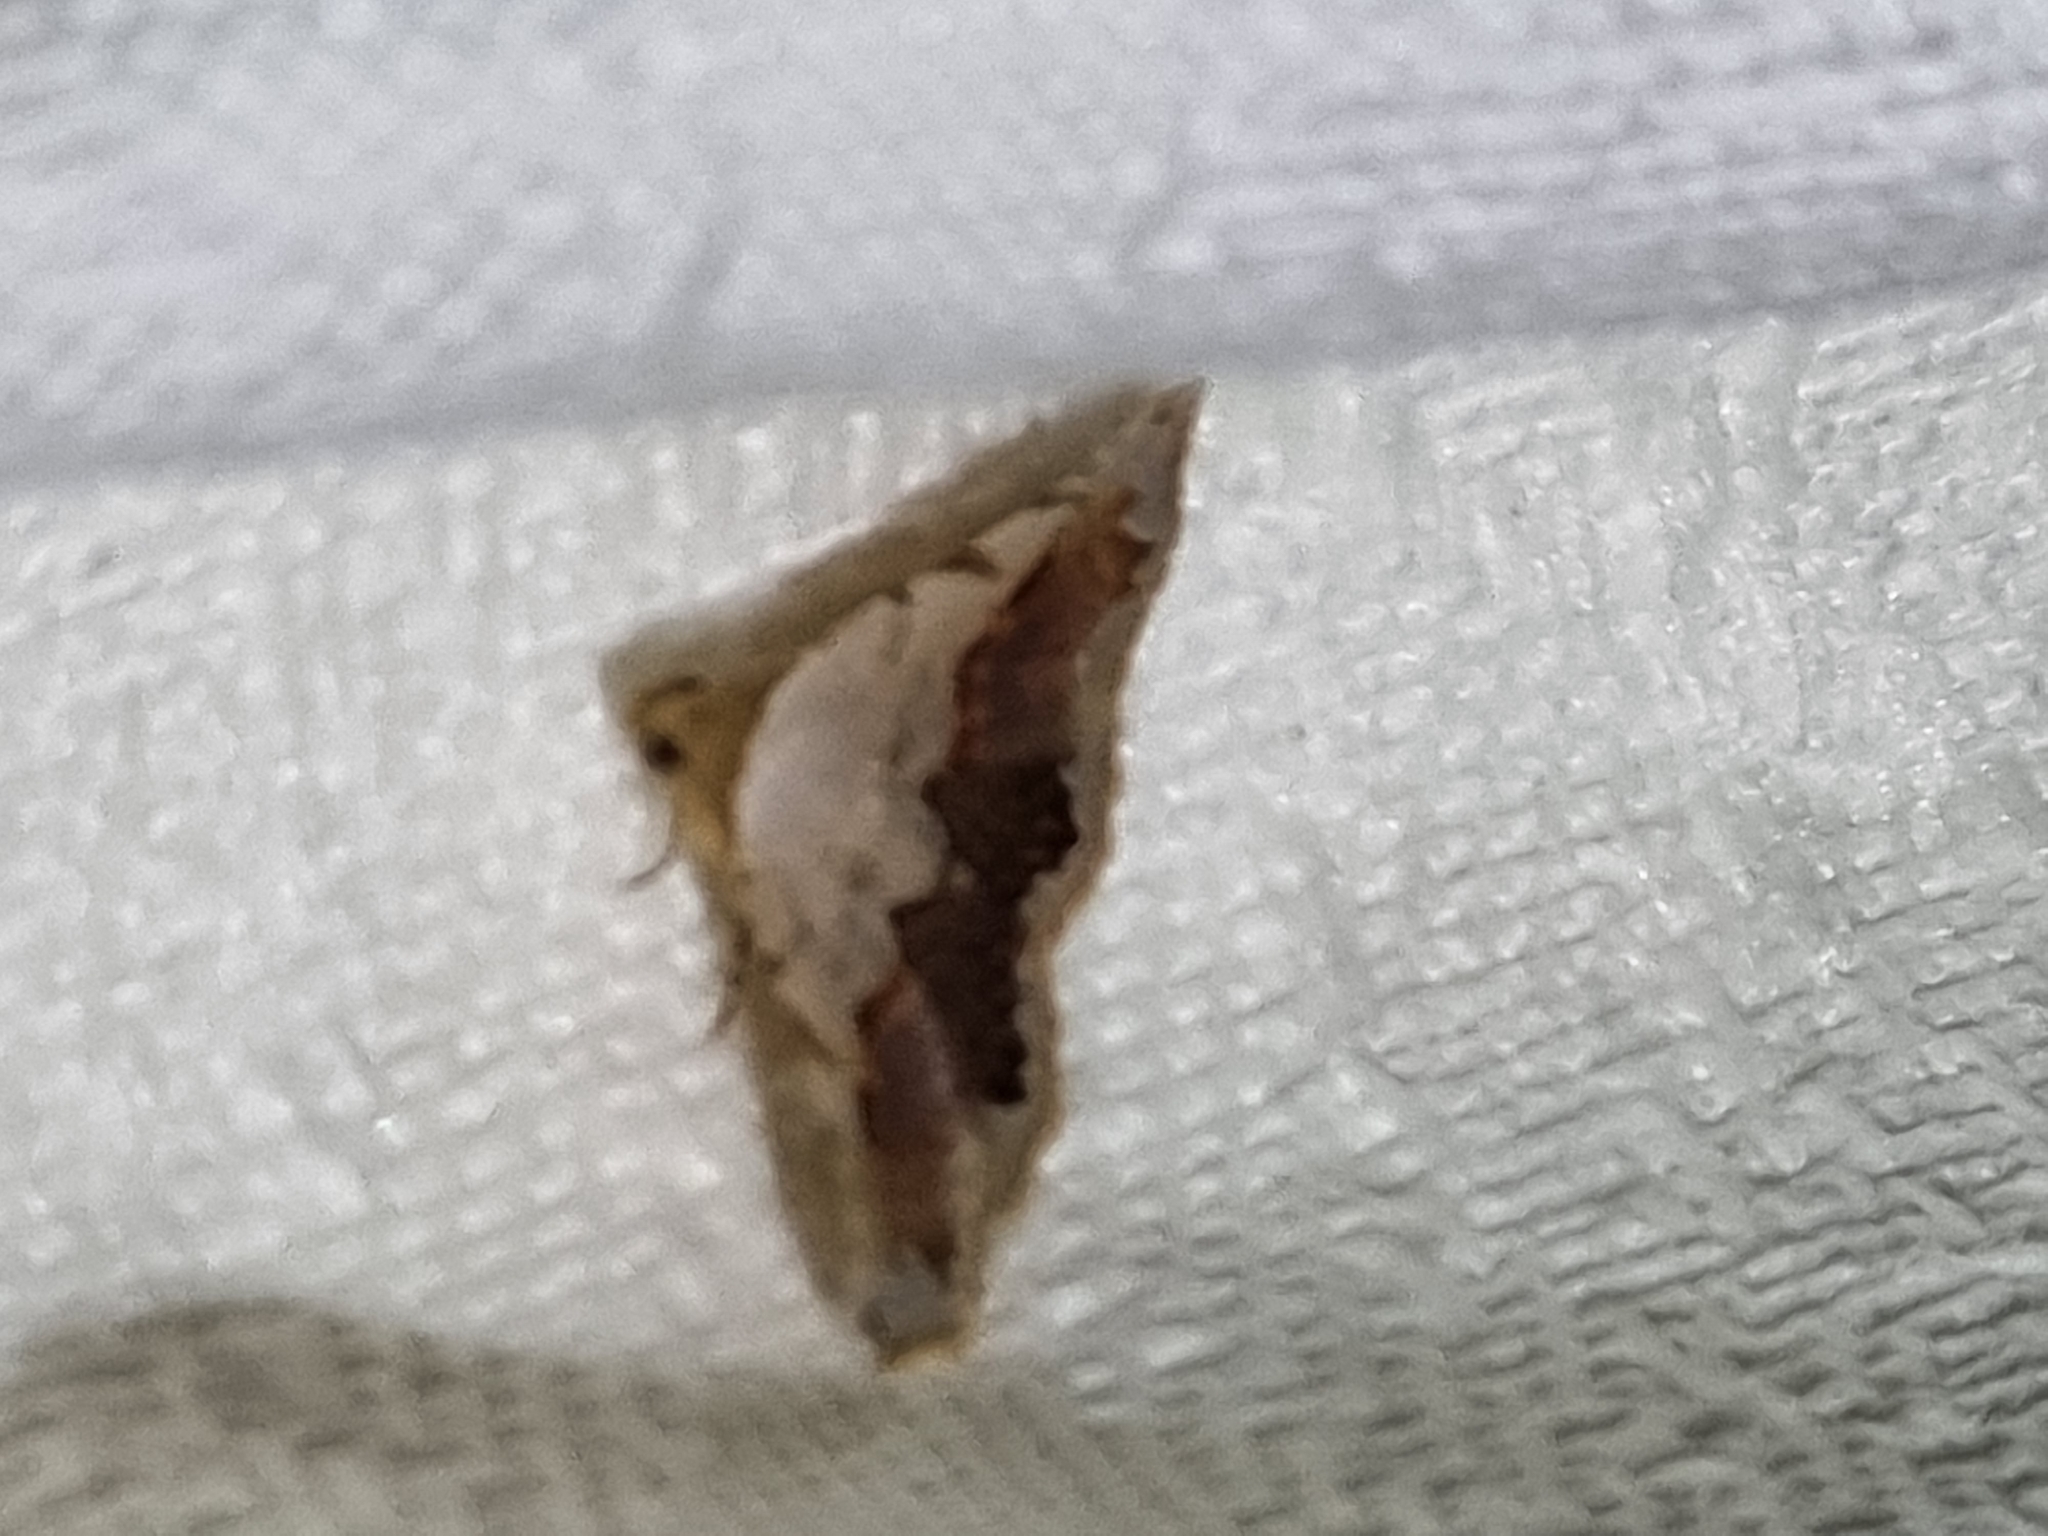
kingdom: Animalia
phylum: Arthropoda
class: Insecta
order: Lepidoptera
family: Noctuidae
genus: Eublemma
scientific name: Eublemma
